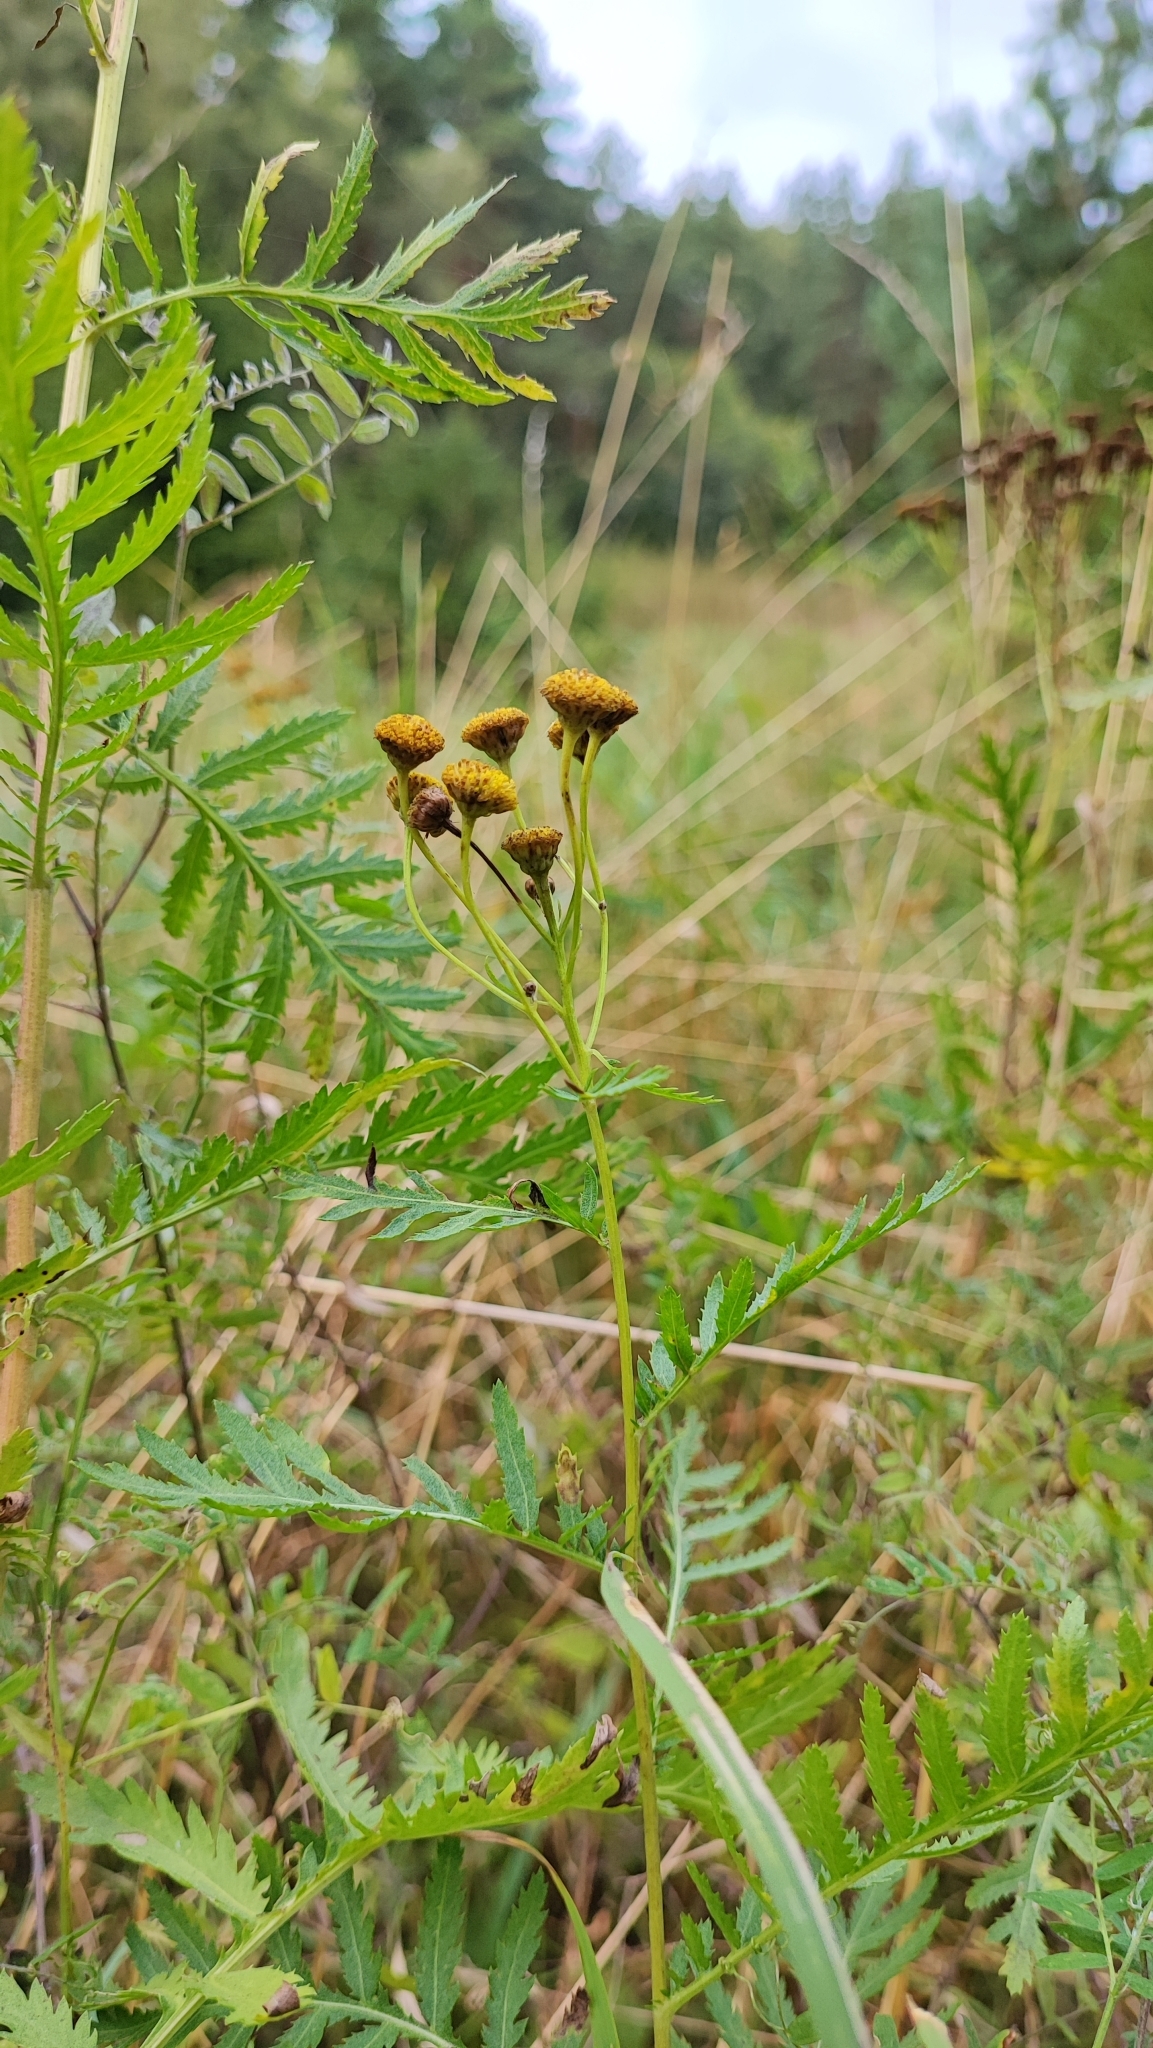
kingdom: Plantae
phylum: Tracheophyta
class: Magnoliopsida
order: Asterales
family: Asteraceae
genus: Tanacetum
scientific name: Tanacetum vulgare
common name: Common tansy
